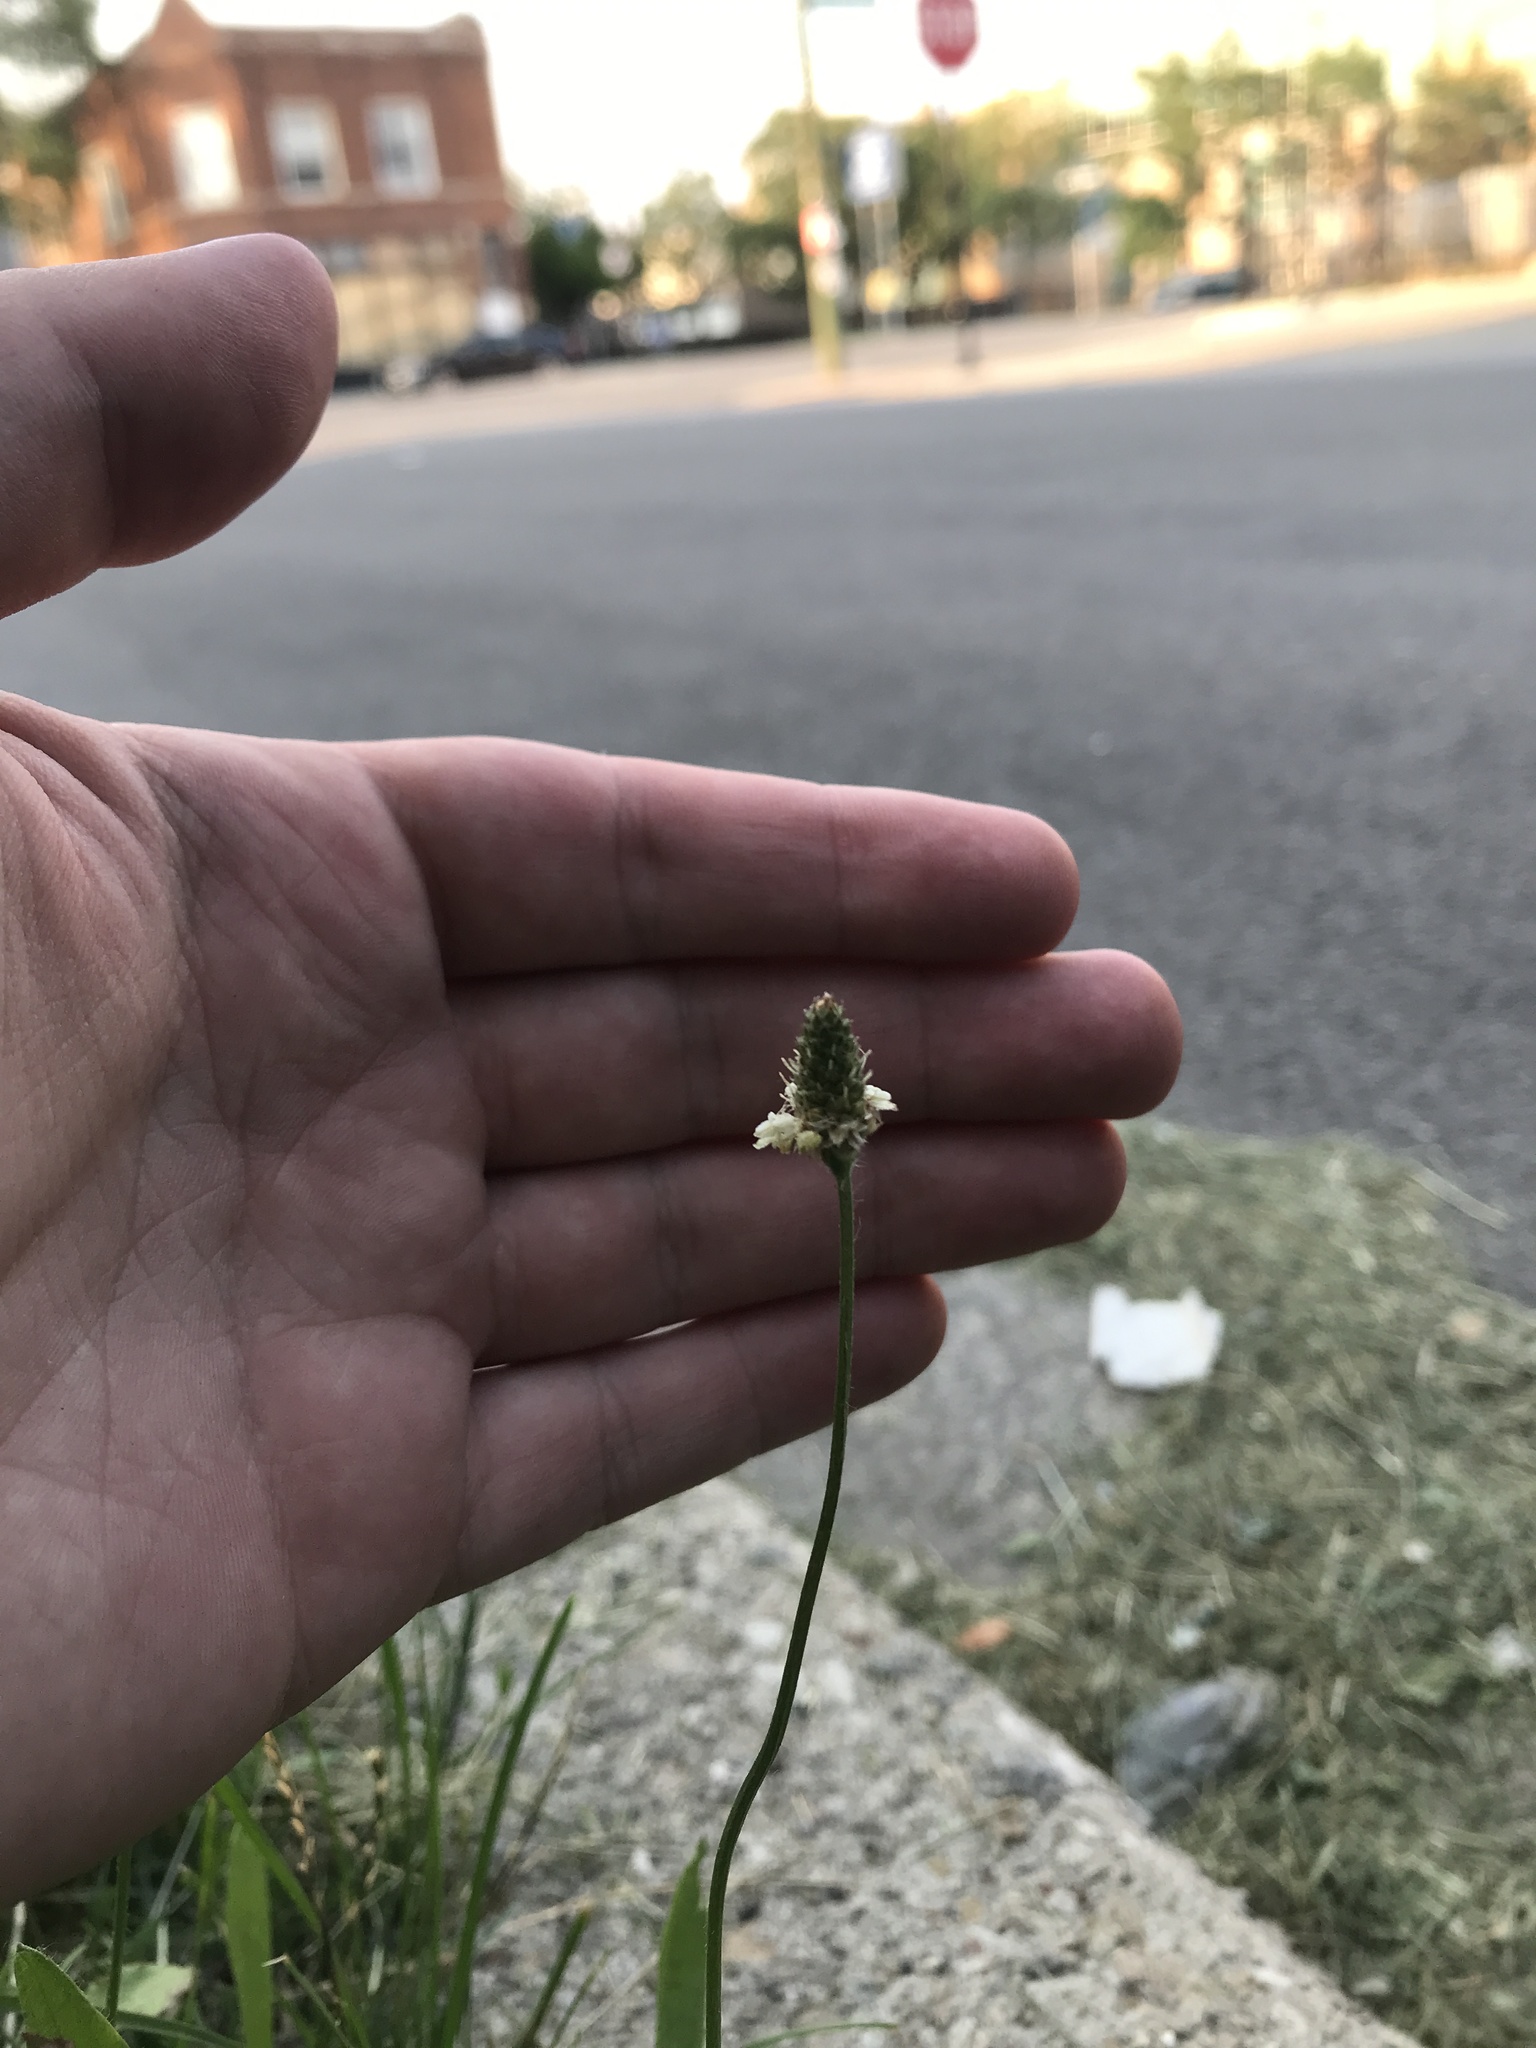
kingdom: Plantae
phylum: Tracheophyta
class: Magnoliopsida
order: Lamiales
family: Plantaginaceae
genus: Plantago
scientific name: Plantago lanceolata
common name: Ribwort plantain
